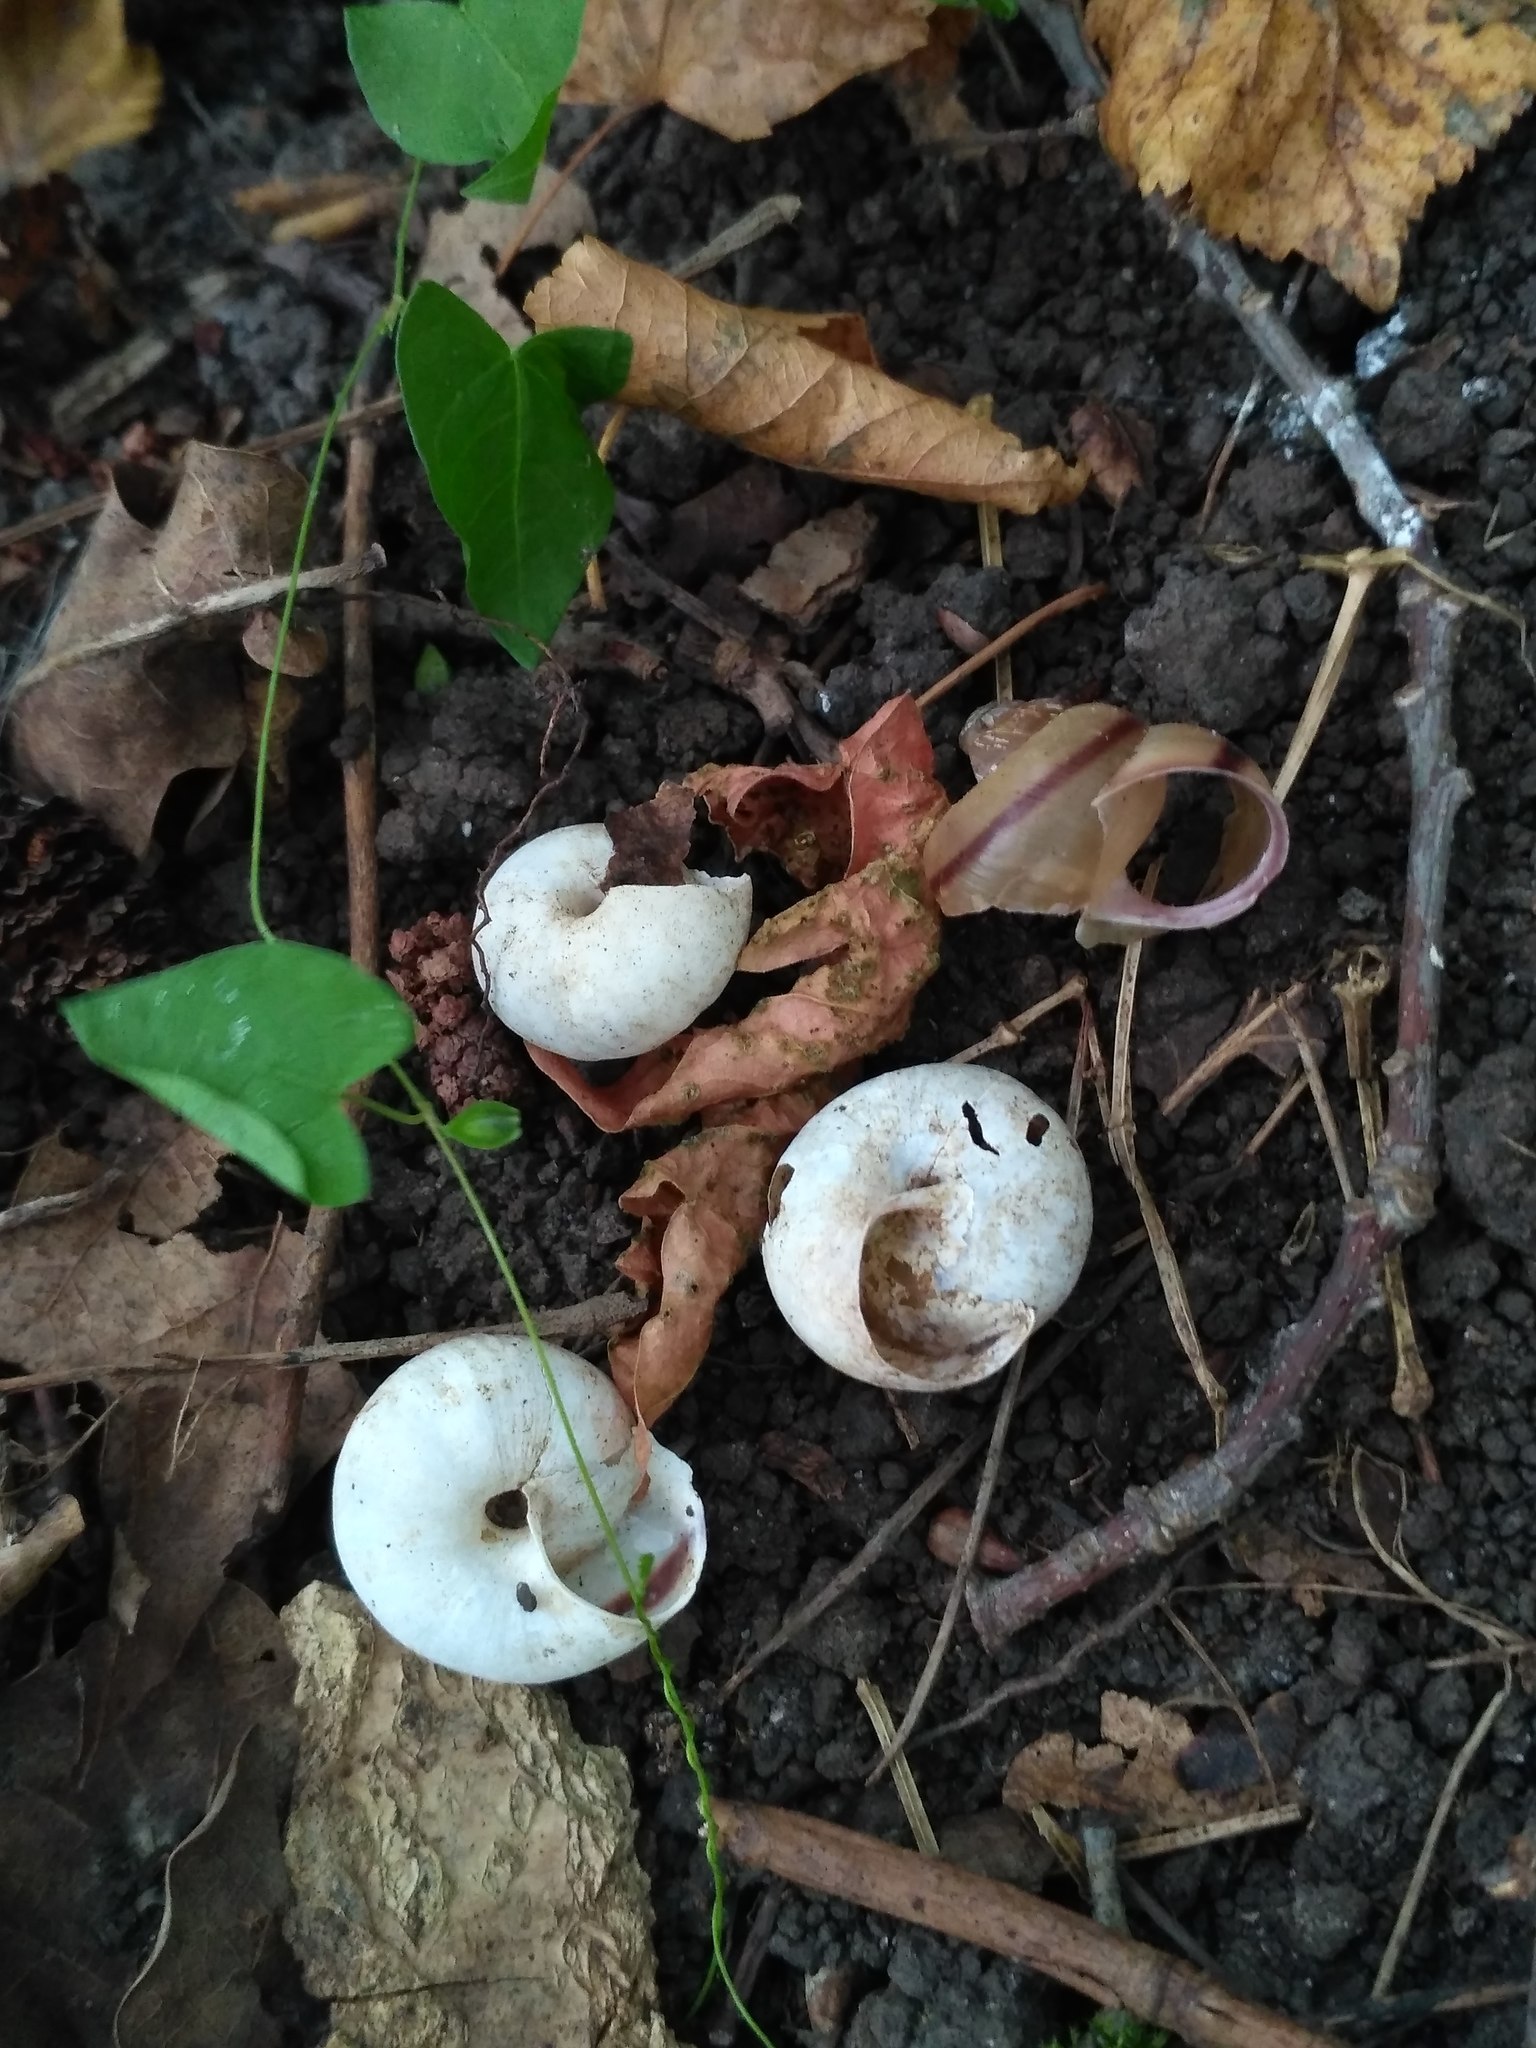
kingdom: Animalia
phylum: Mollusca
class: Gastropoda
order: Stylommatophora
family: Camaenidae
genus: Fruticicola
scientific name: Fruticicola fruticum
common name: Bush snail
